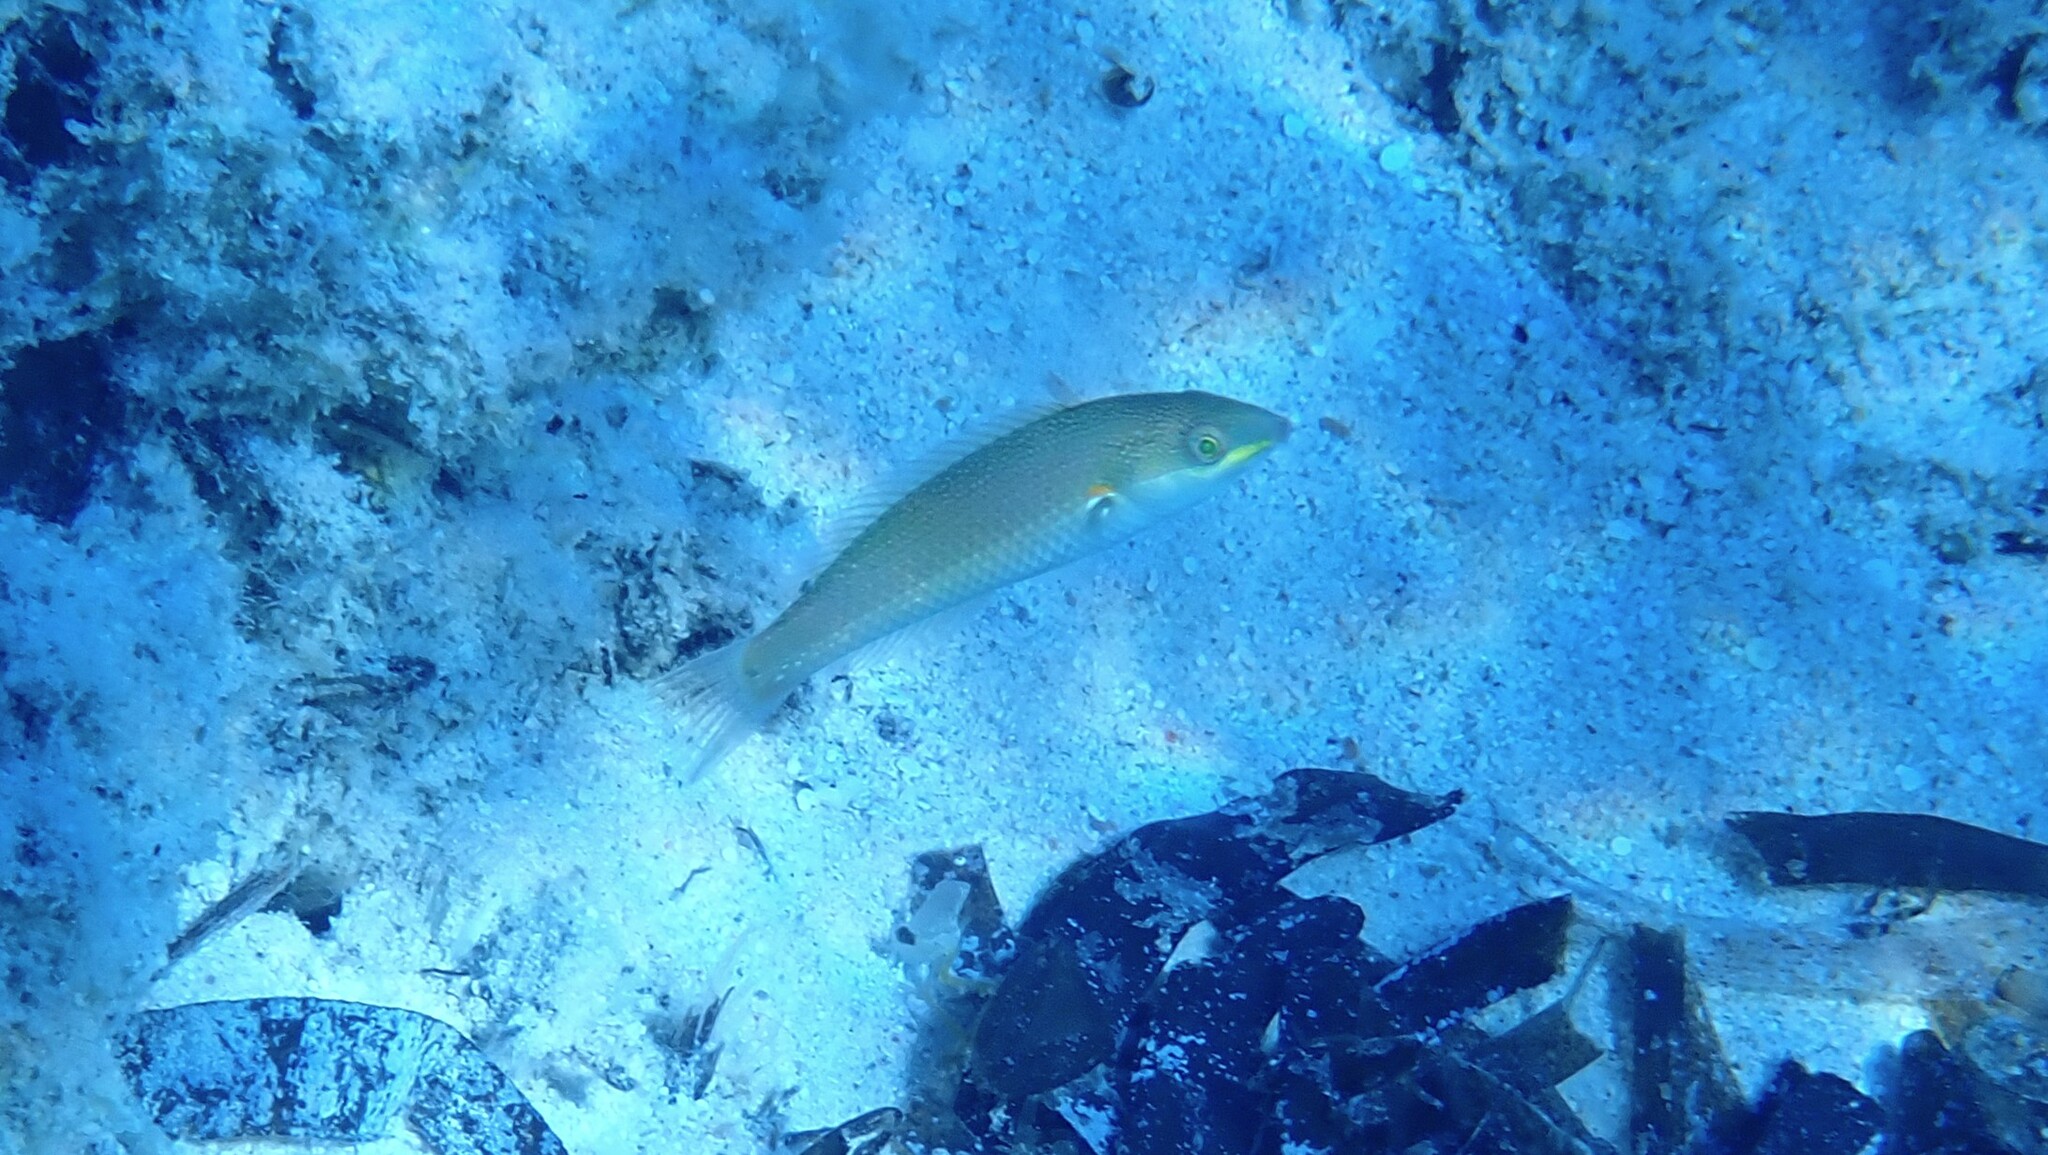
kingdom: Animalia
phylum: Chordata
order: Perciformes
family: Labridae
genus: Stethojulis
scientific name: Stethojulis albovittata
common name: Bluelined wrasse
